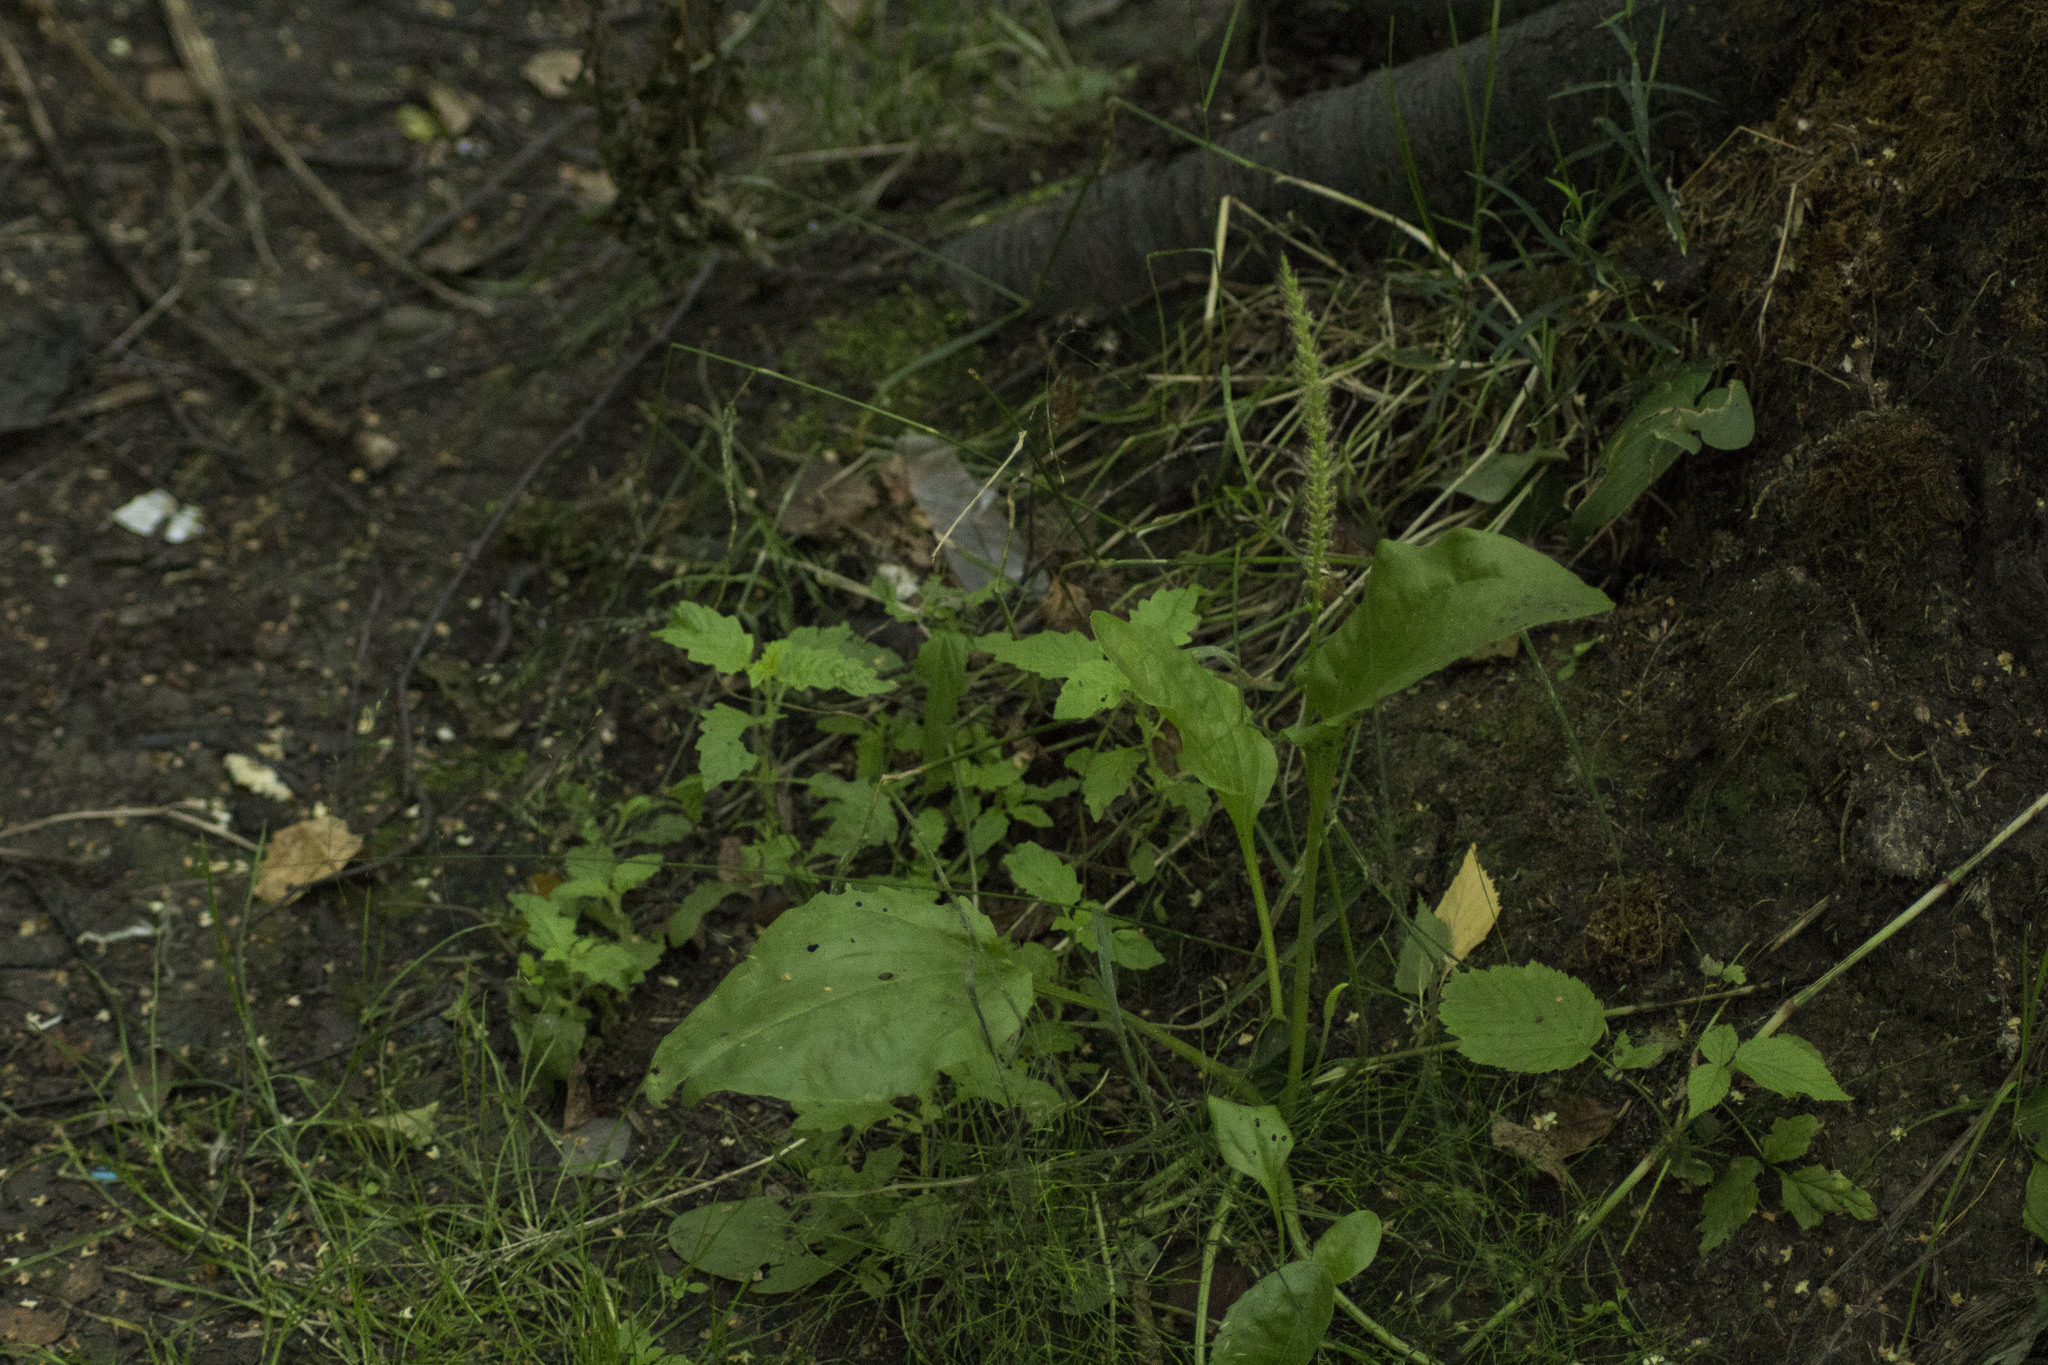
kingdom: Plantae
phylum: Tracheophyta
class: Magnoliopsida
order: Lamiales
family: Plantaginaceae
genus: Plantago
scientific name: Plantago major
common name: Common plantain
